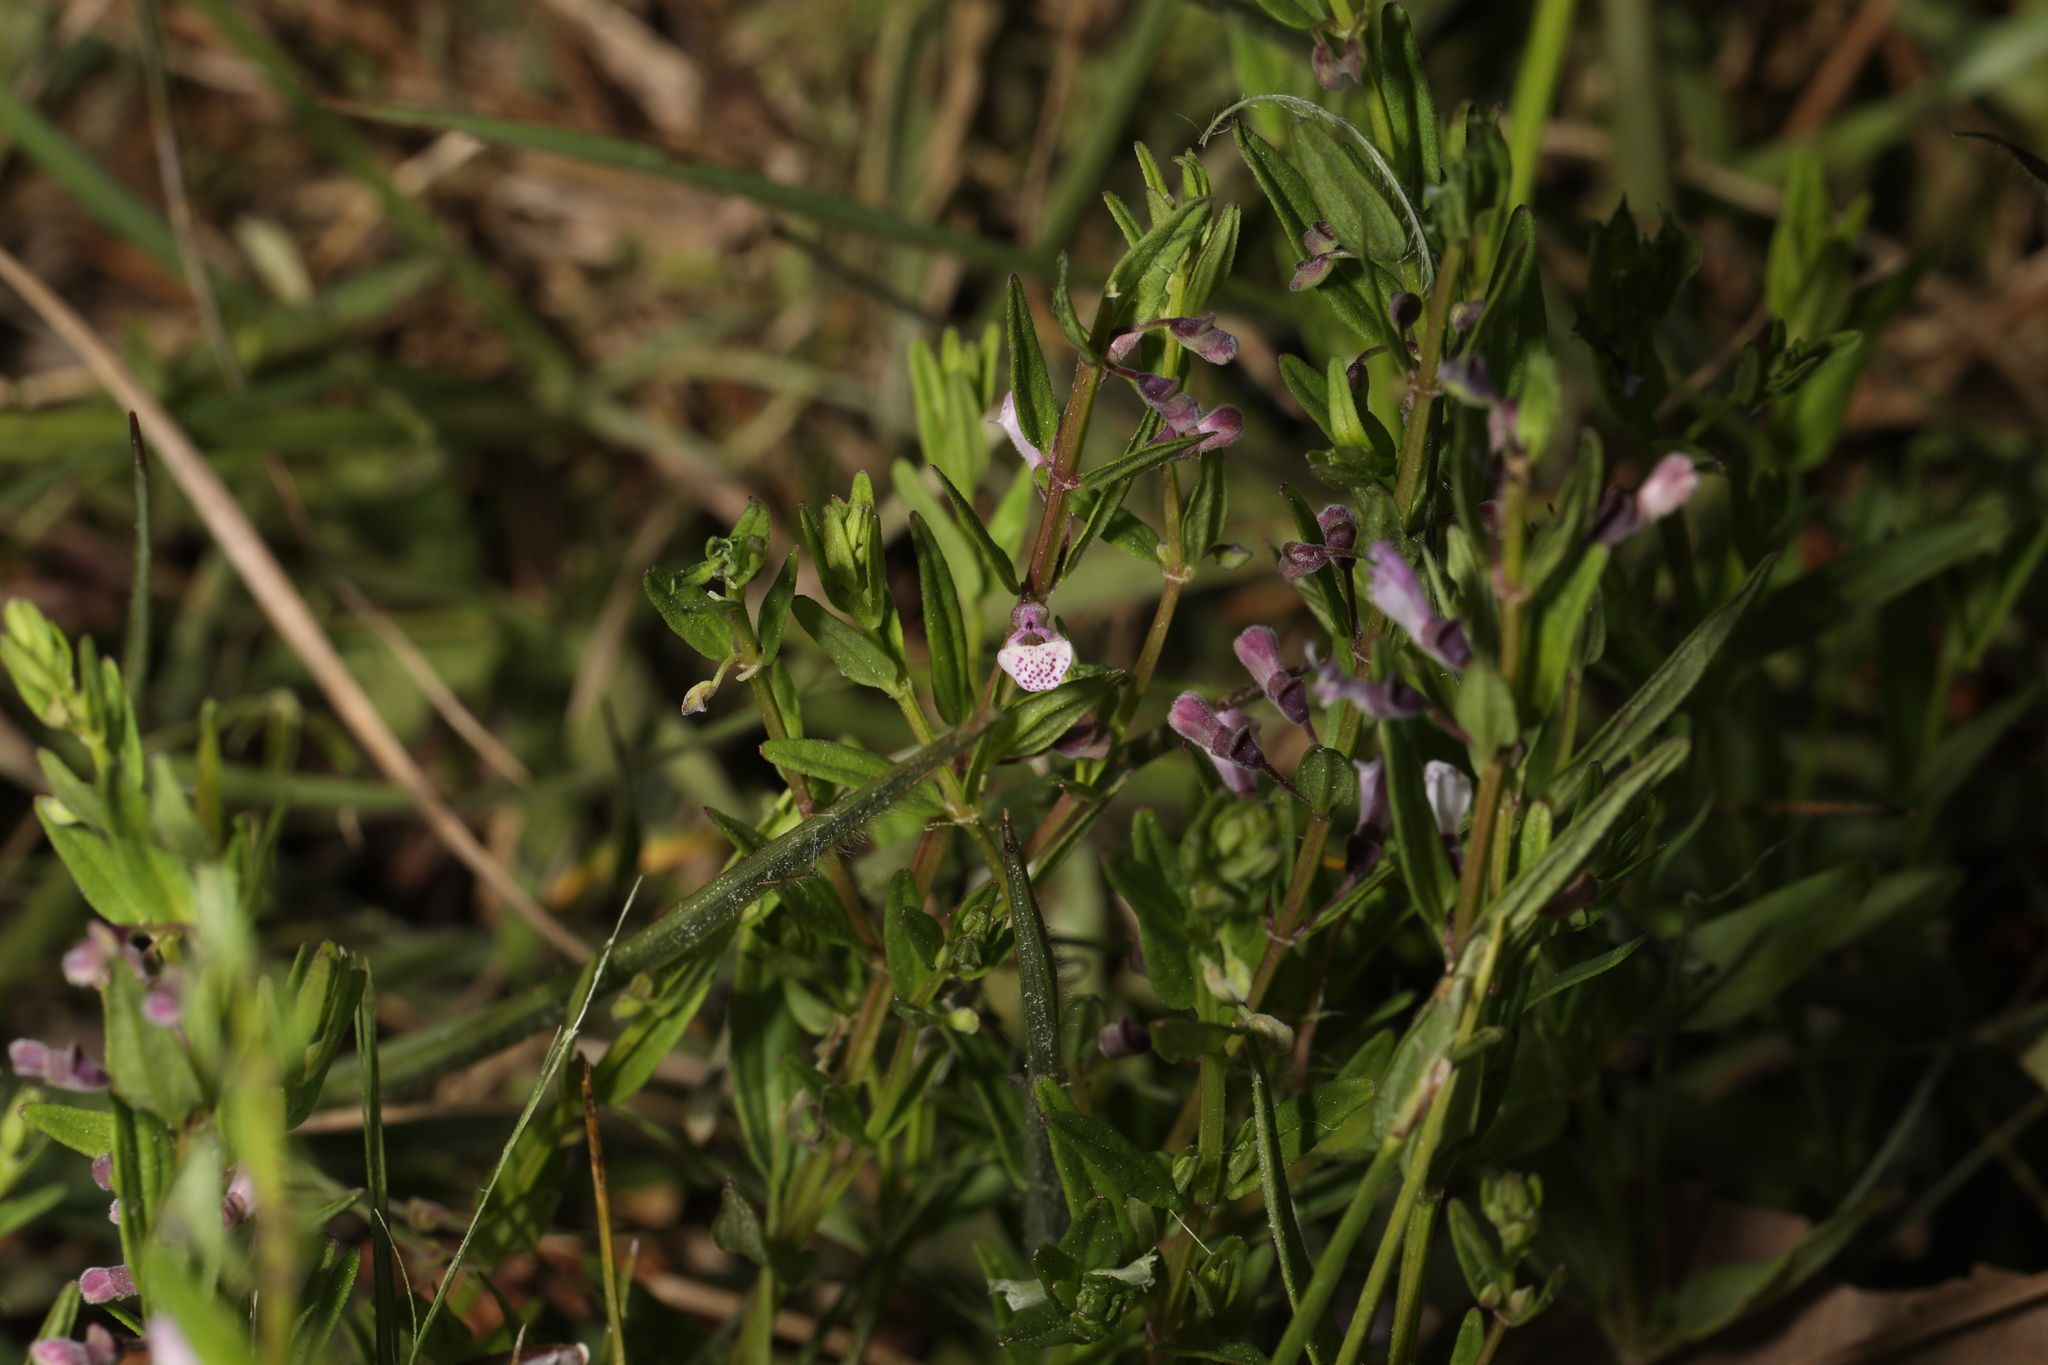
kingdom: Plantae
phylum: Tracheophyta
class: Magnoliopsida
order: Lamiales
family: Lamiaceae
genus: Scutellaria
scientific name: Scutellaria racemosa
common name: South american skullcap
